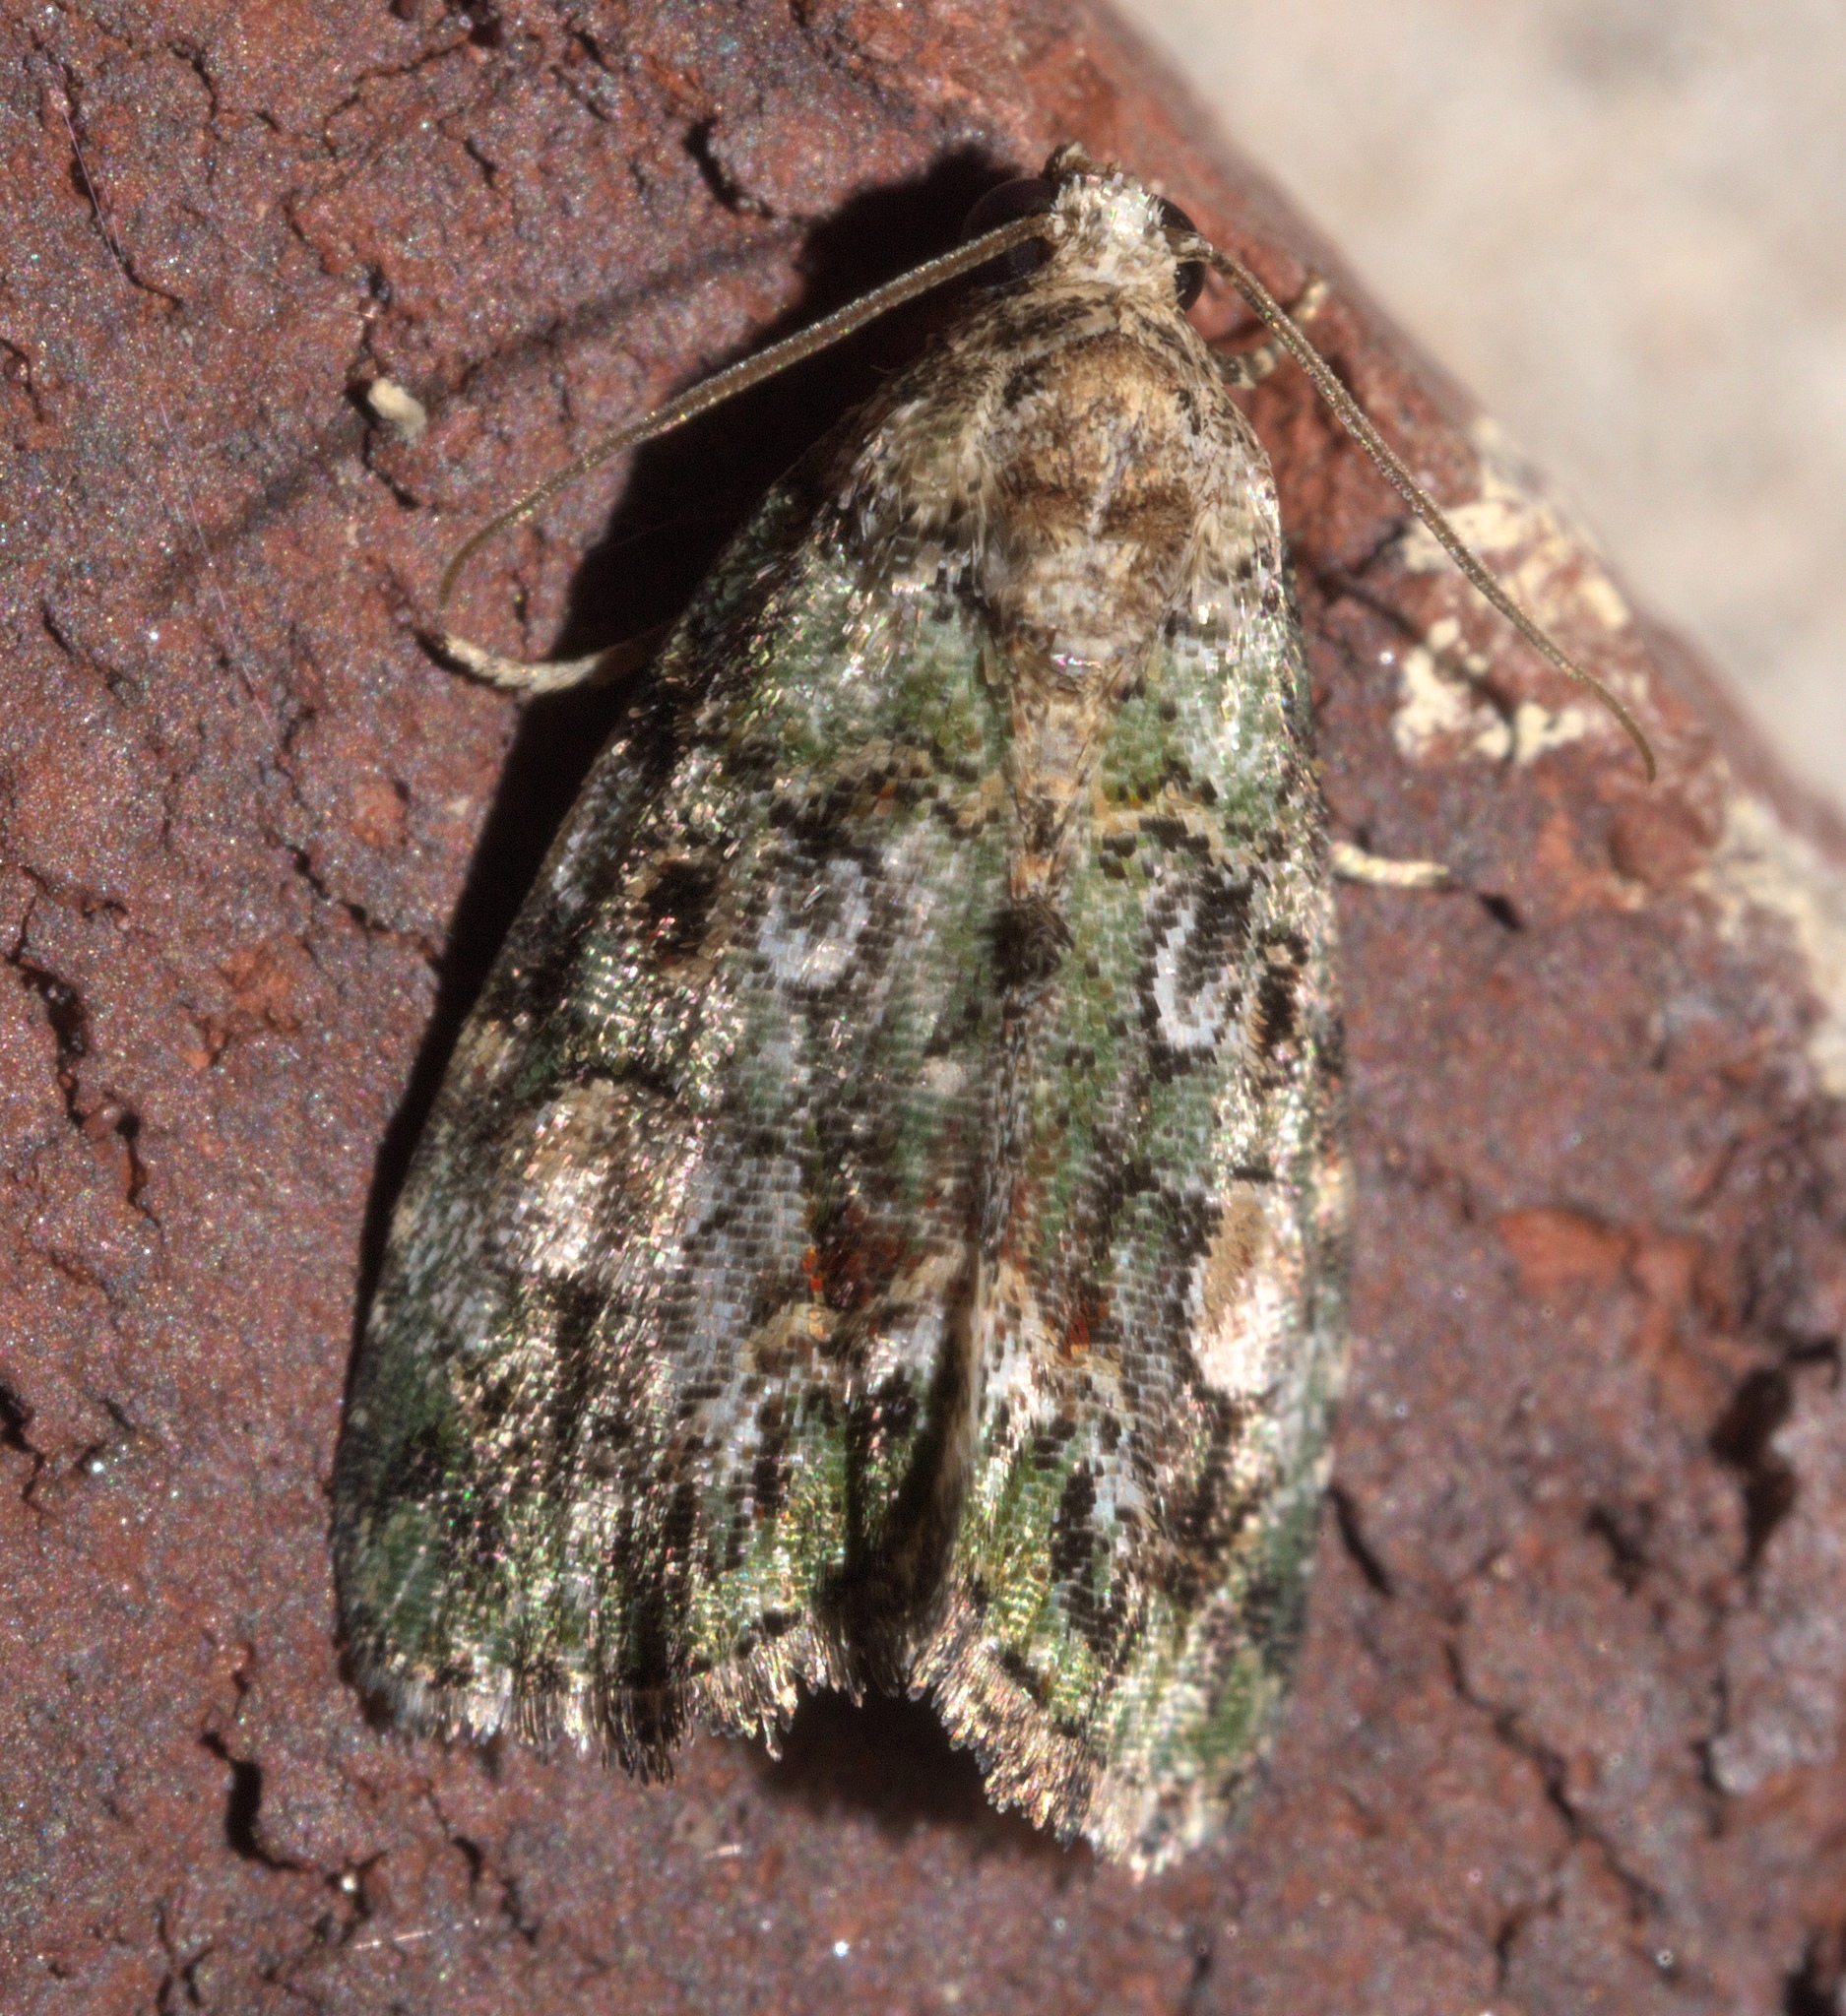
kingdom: Animalia
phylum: Arthropoda
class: Insecta
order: Lepidoptera
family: Noctuidae
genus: Lithacodia
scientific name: Lithacodia musta
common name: Small mossy glyph
